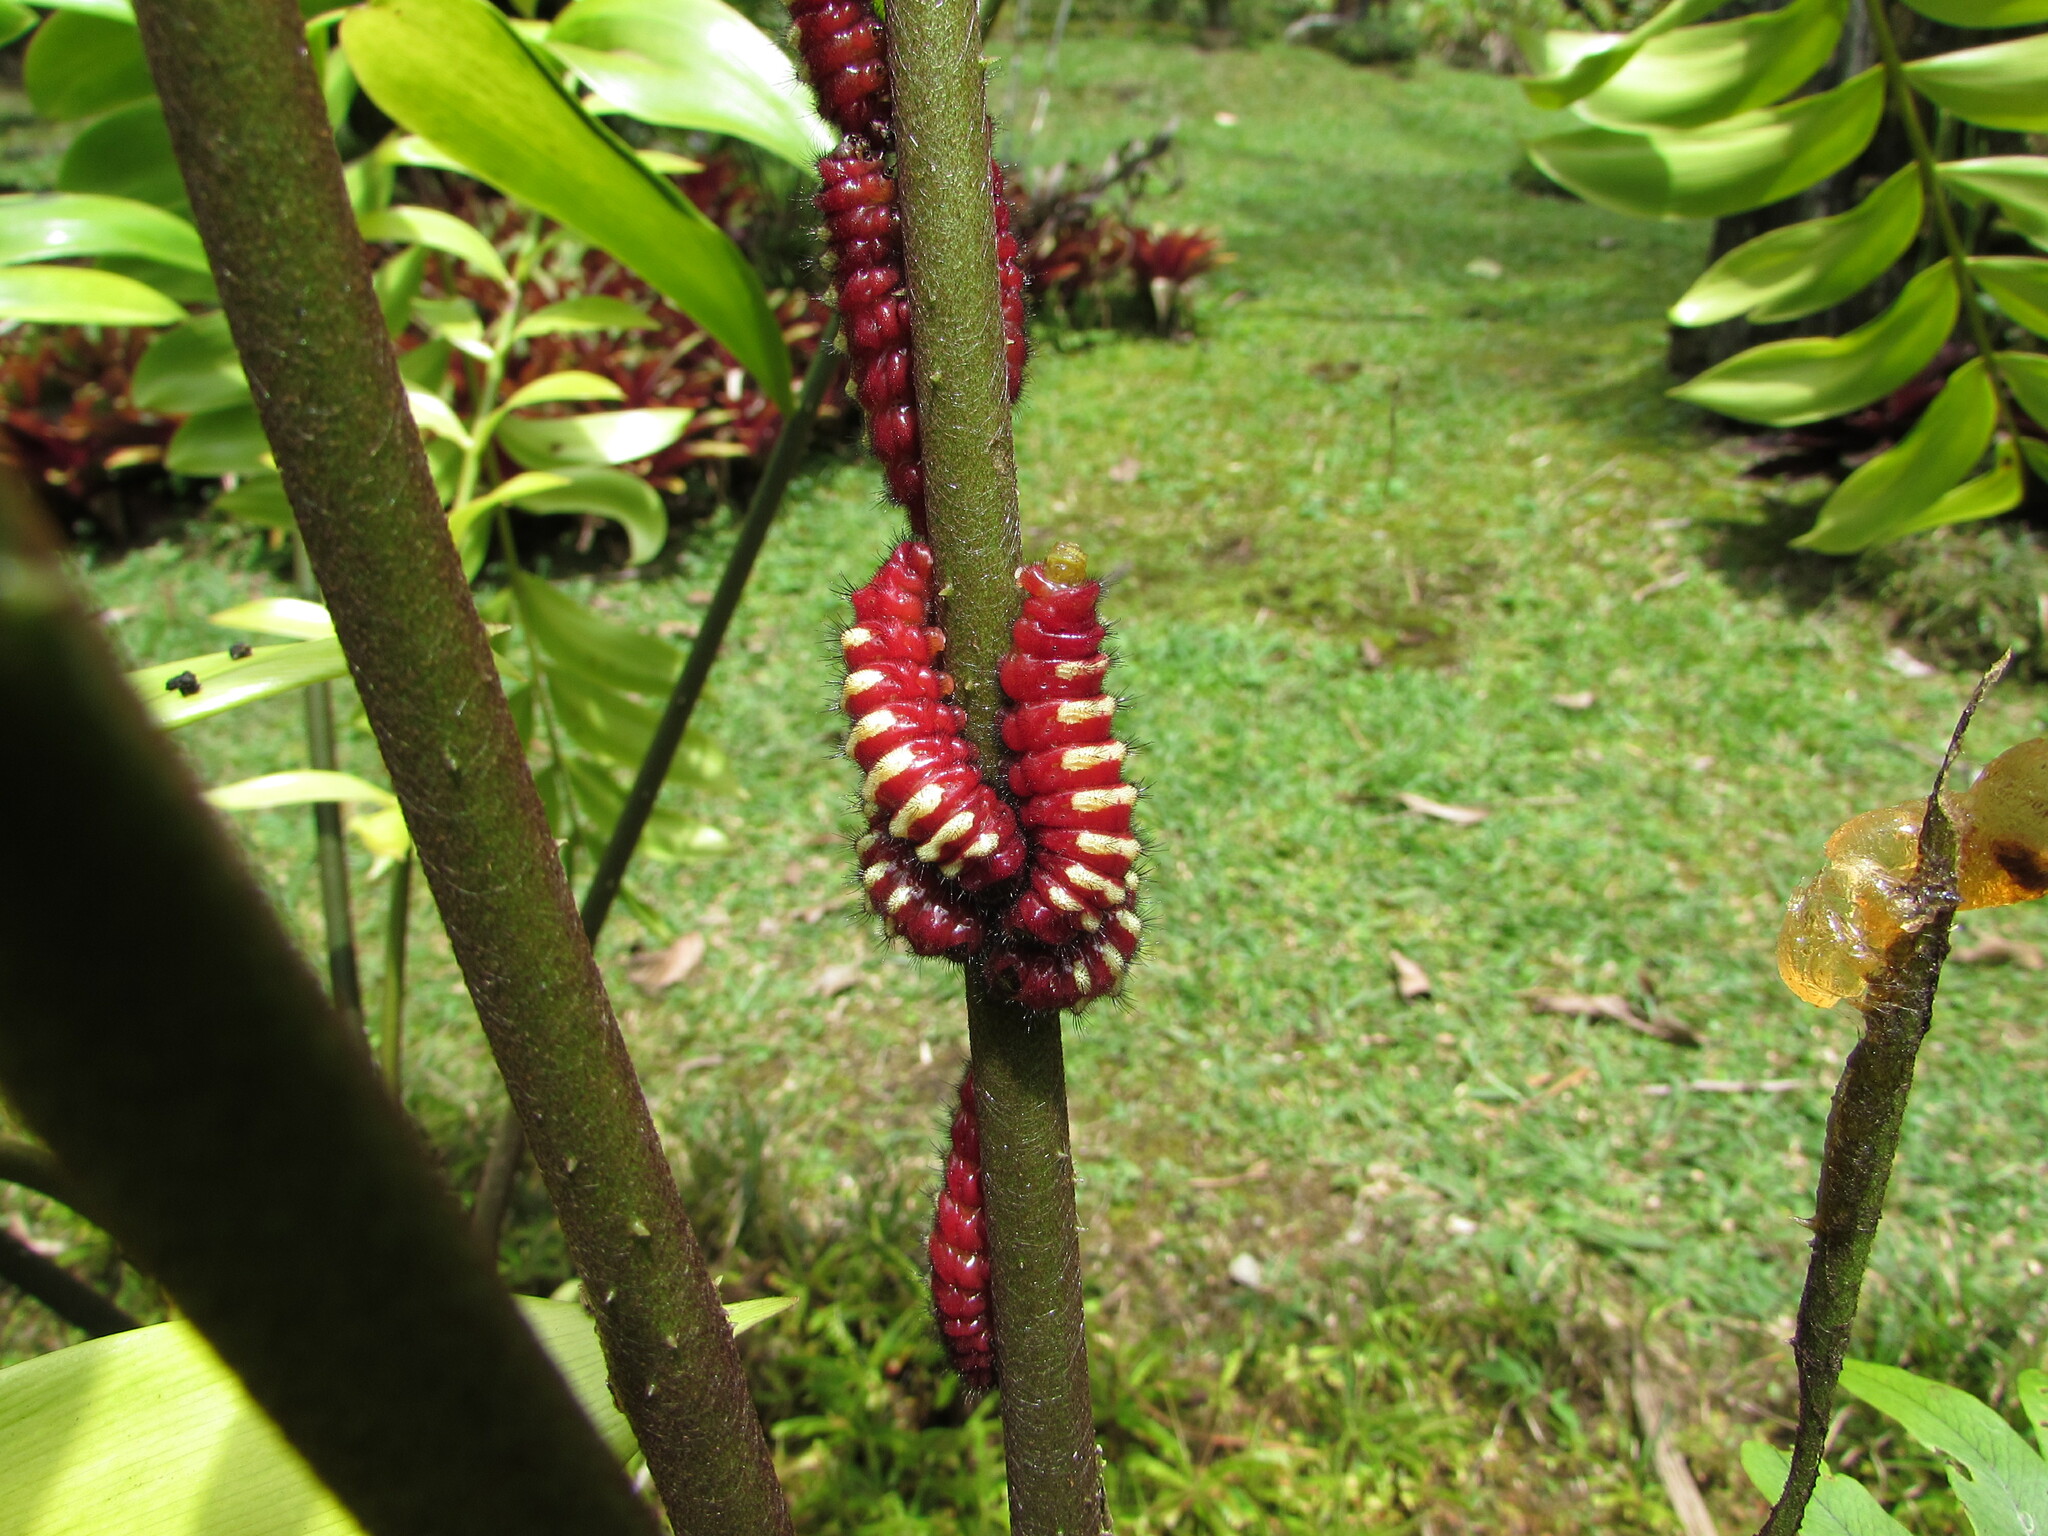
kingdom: Animalia
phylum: Arthropoda
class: Insecta
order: Lepidoptera
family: Lycaenidae
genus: Eumaeus
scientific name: Eumaeus godartii
